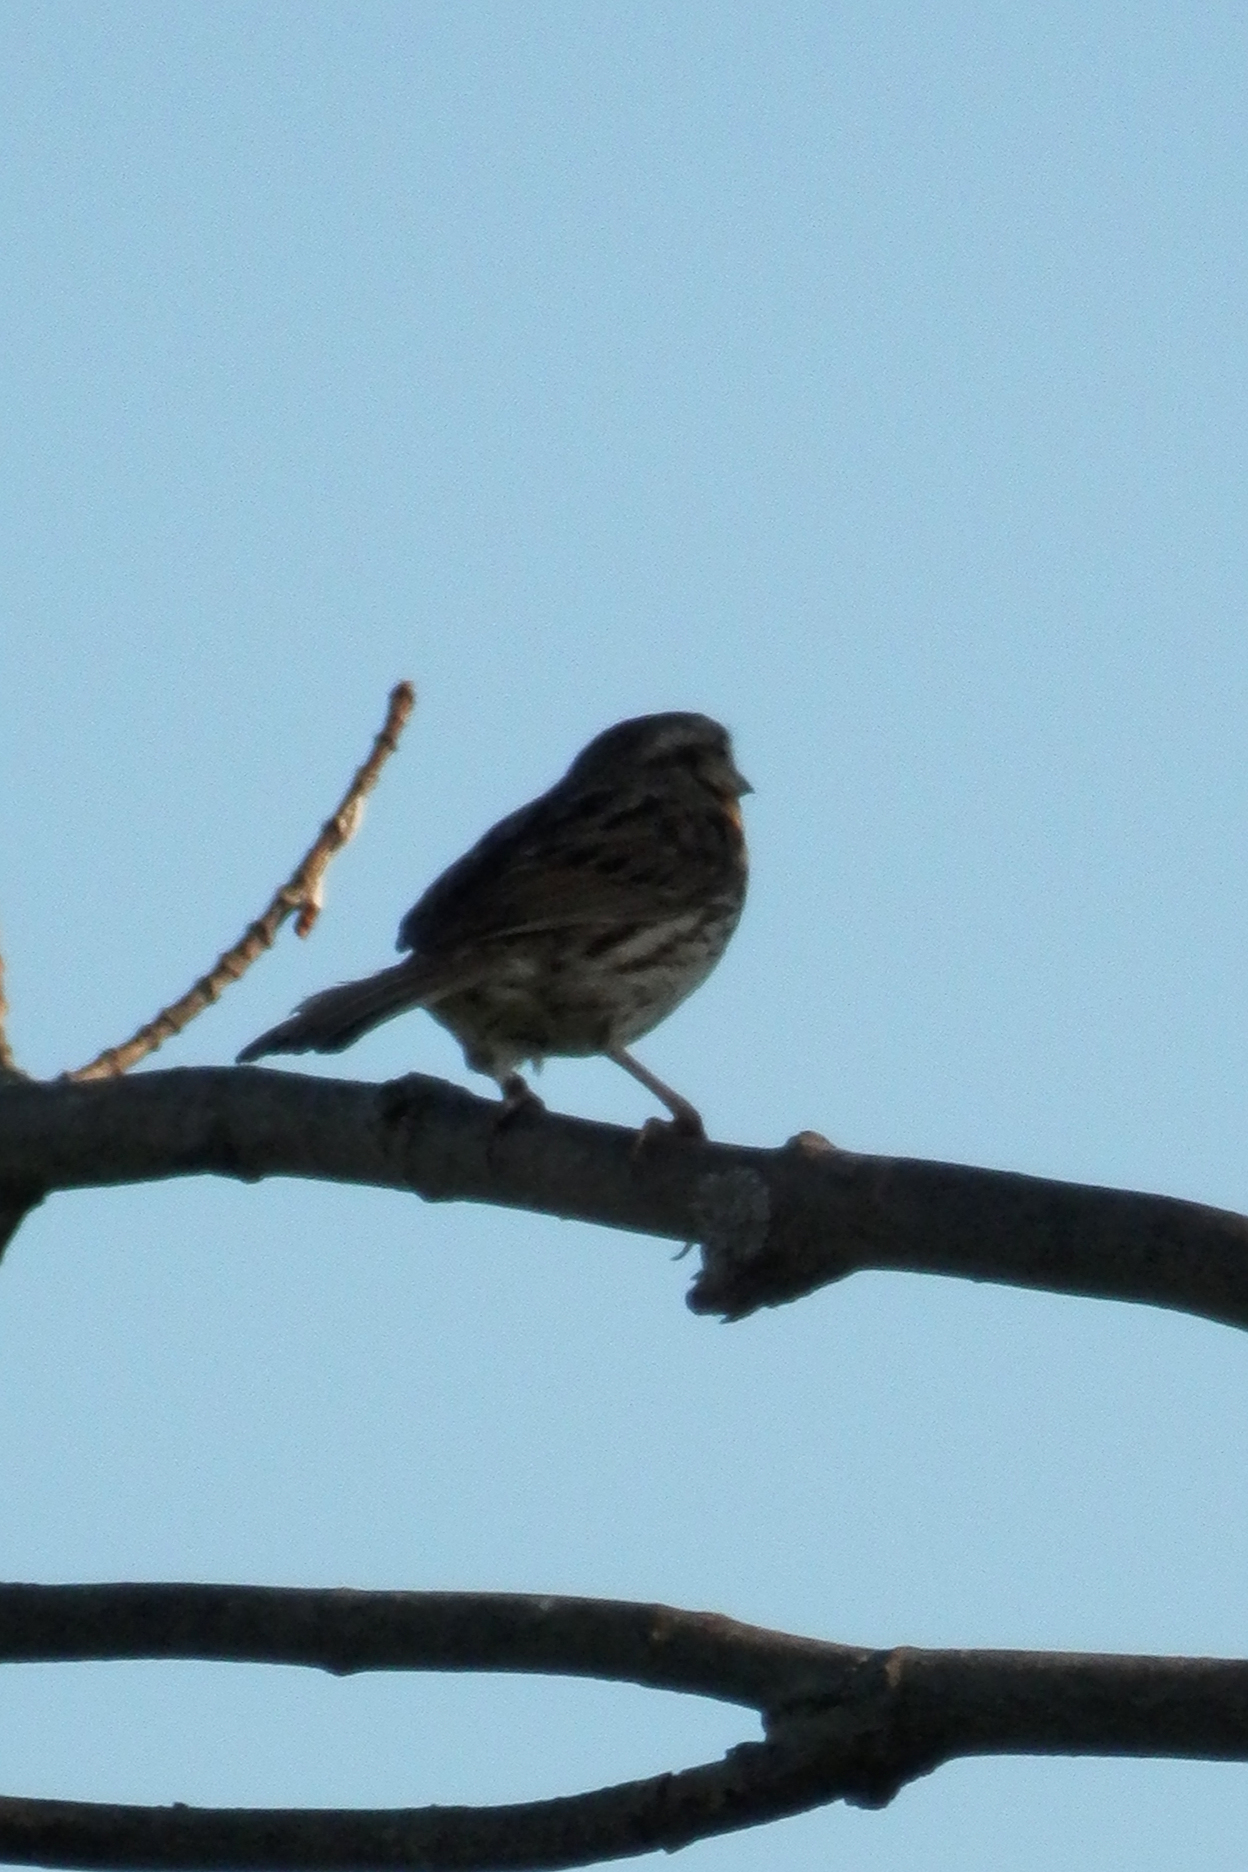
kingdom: Animalia
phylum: Chordata
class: Aves
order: Passeriformes
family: Passerellidae
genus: Melospiza
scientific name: Melospiza melodia
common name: Song sparrow
